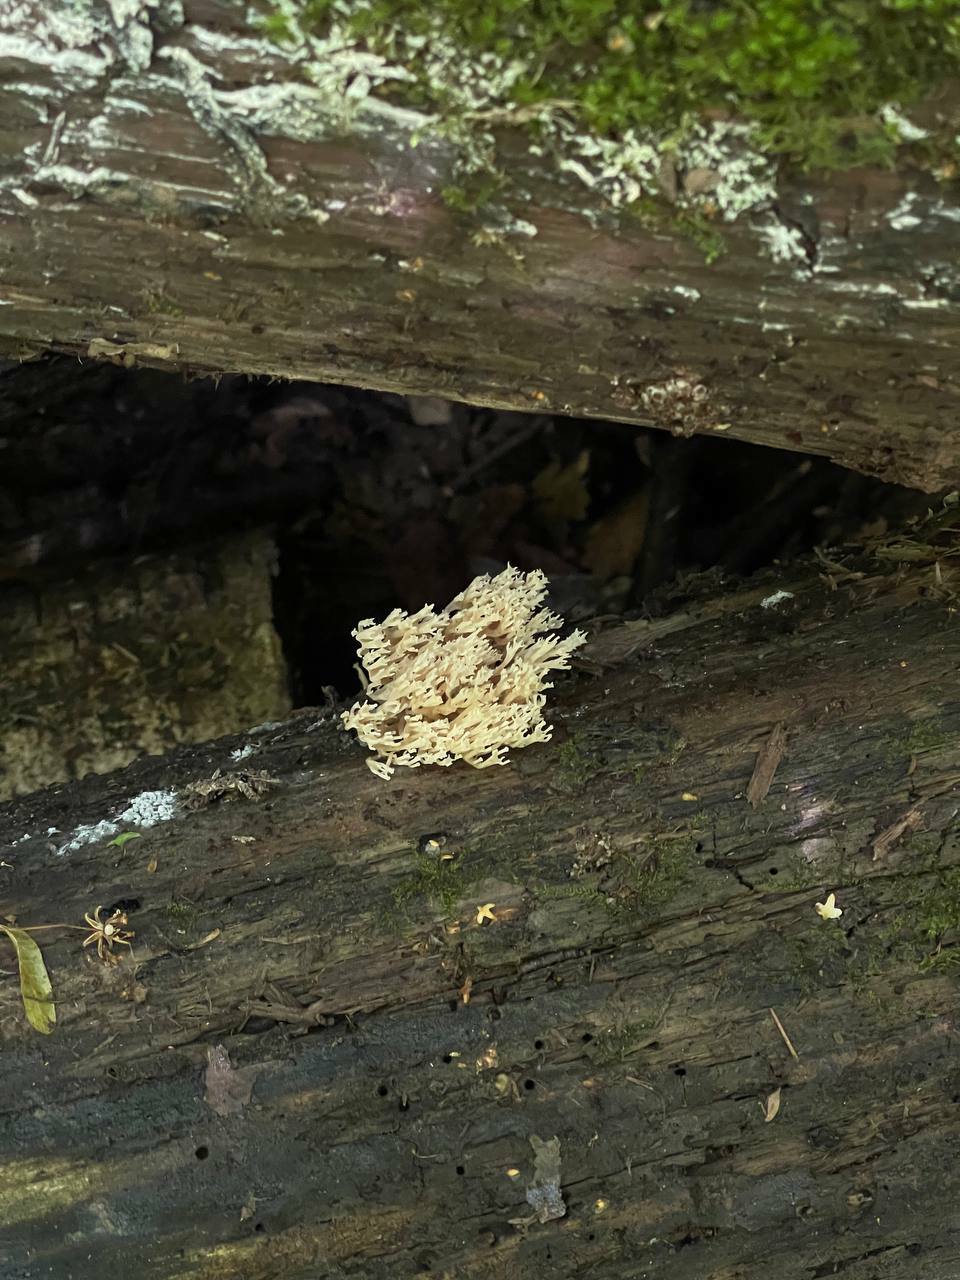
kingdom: Fungi
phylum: Basidiomycota
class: Agaricomycetes
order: Russulales
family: Auriscalpiaceae
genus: Artomyces
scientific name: Artomyces pyxidatus
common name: Crown-tipped coral fungus
